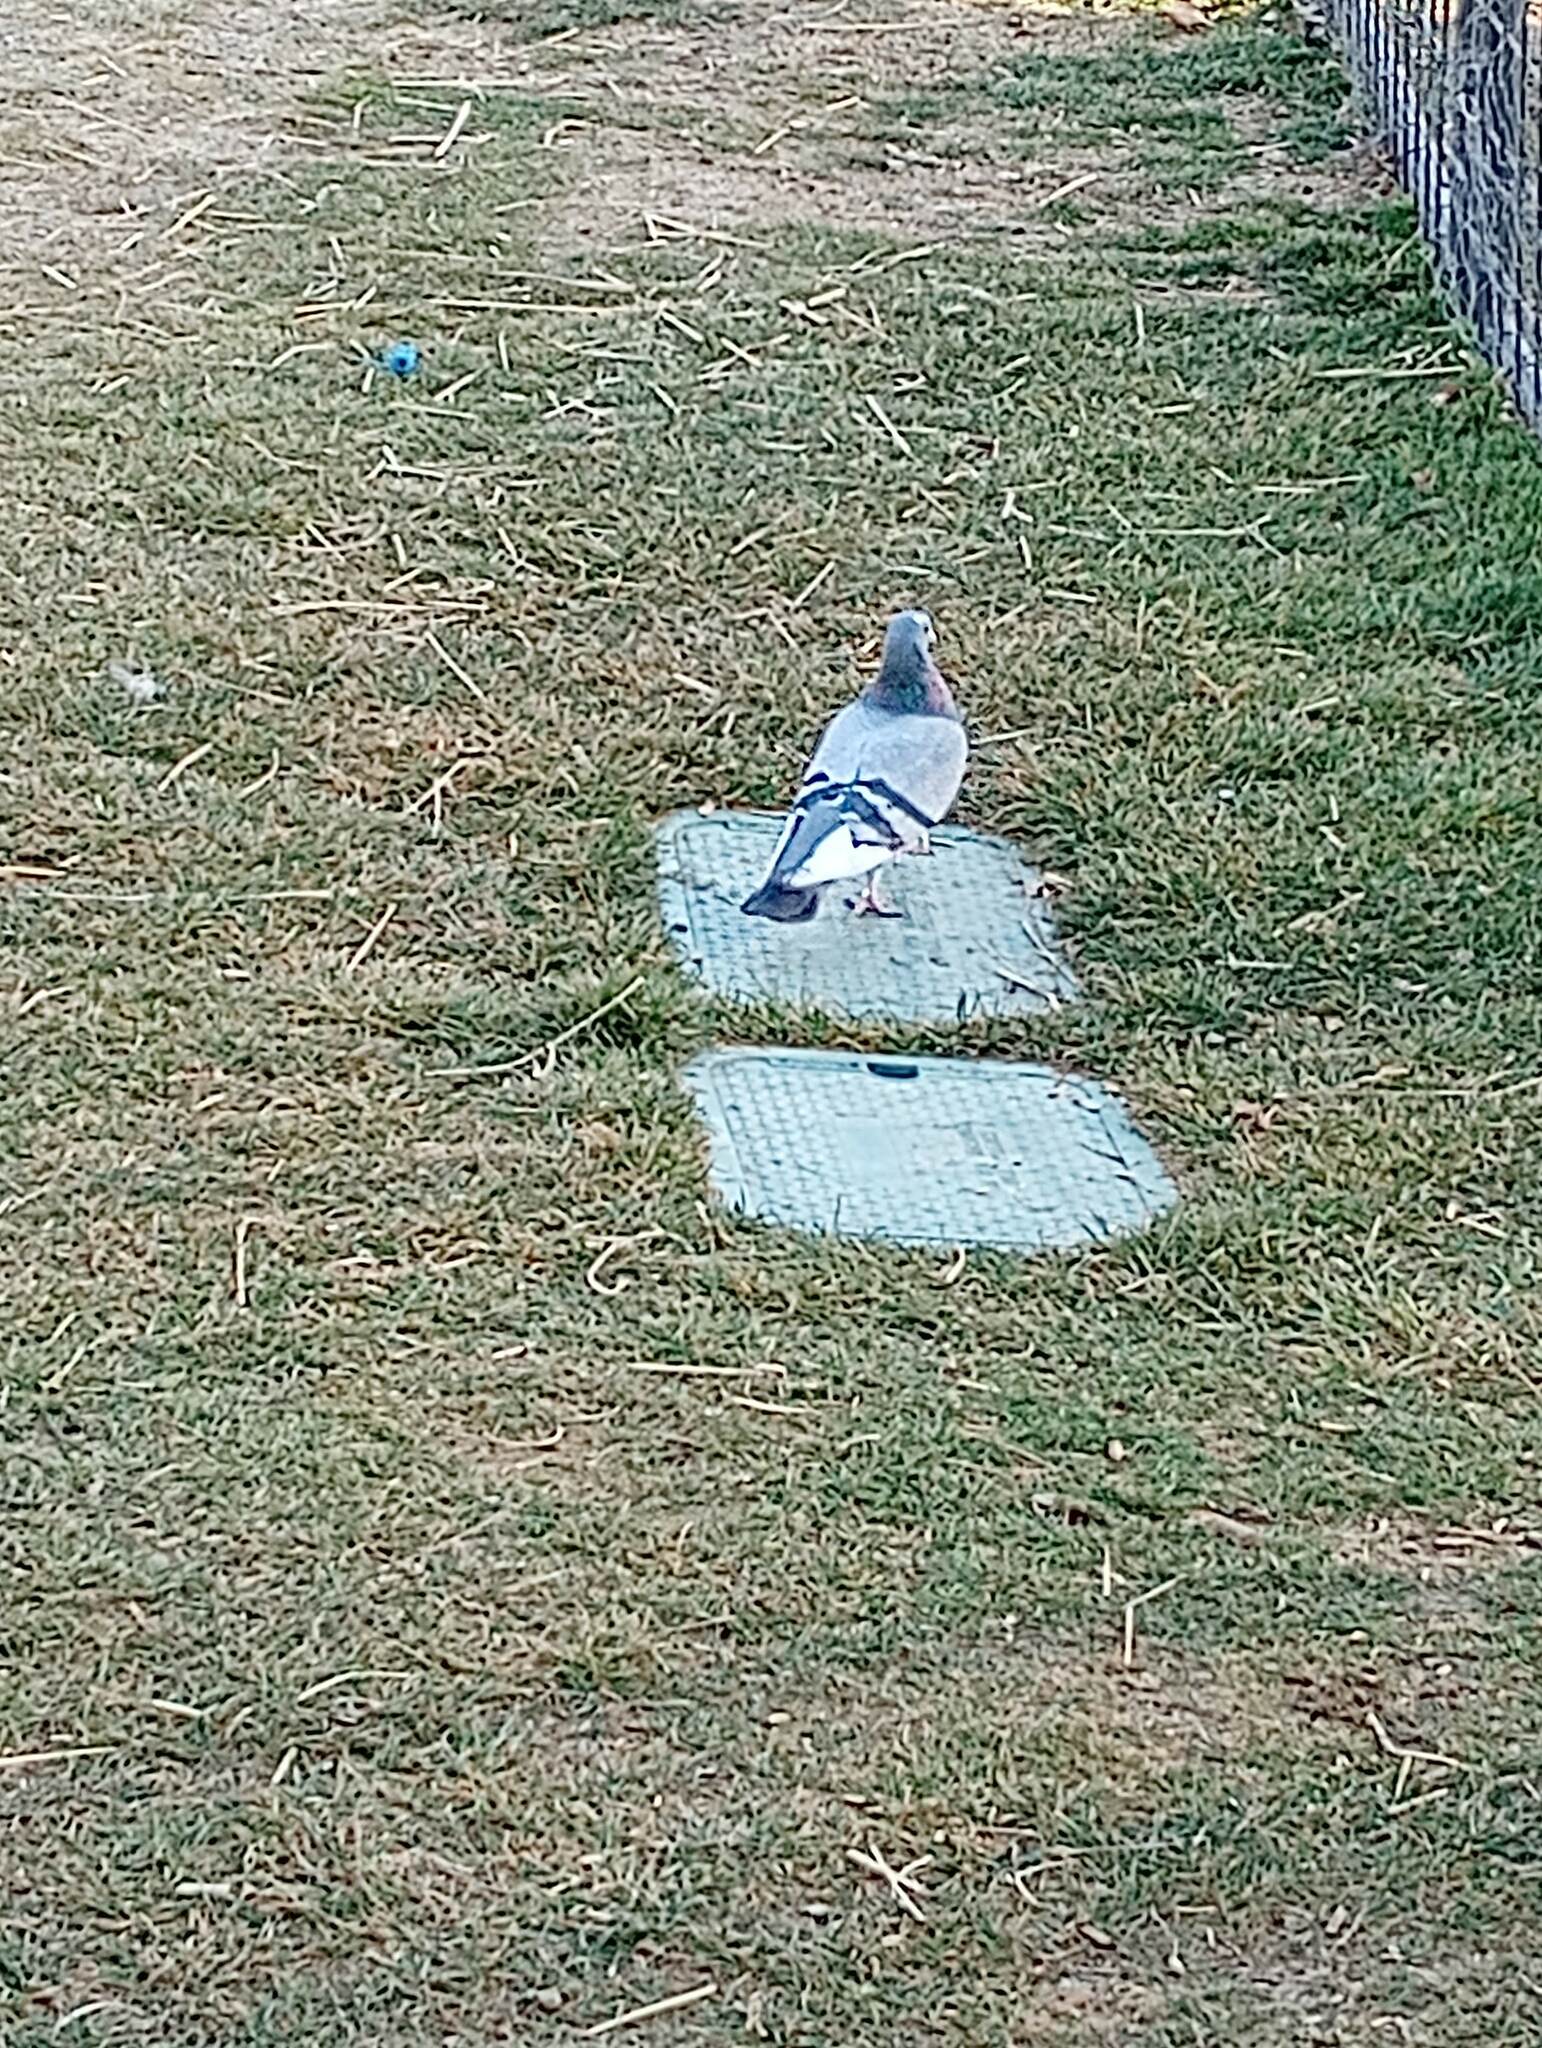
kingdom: Animalia
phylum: Chordata
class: Aves
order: Columbiformes
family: Columbidae
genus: Columba
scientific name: Columba livia
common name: Rock pigeon
